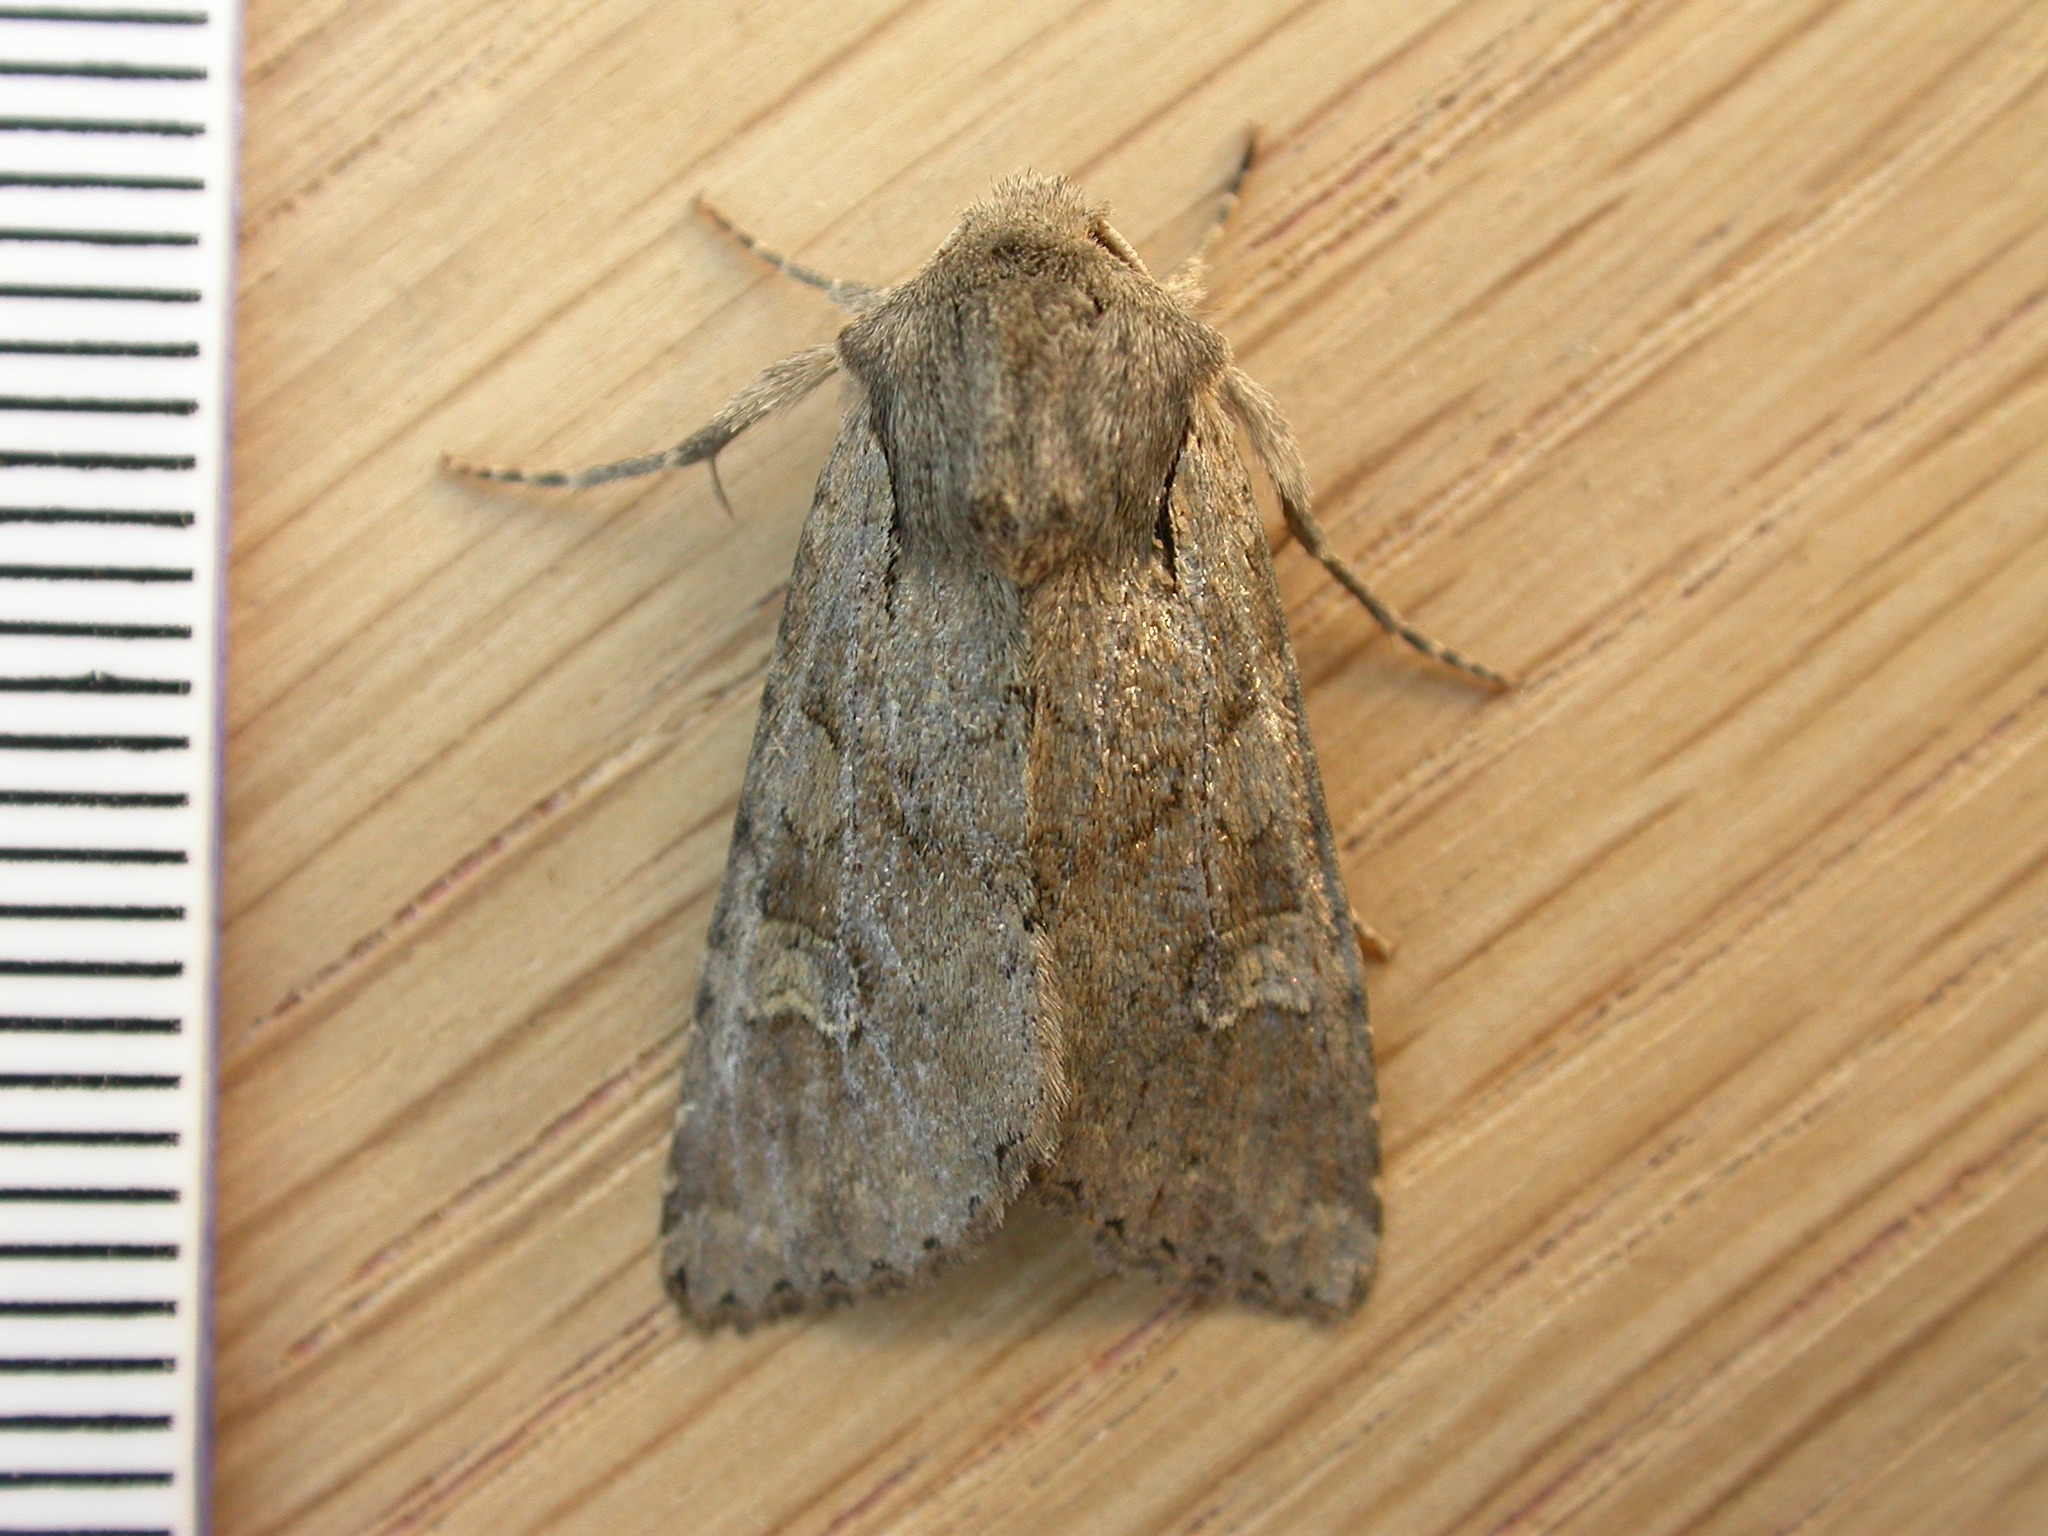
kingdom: Animalia
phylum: Arthropoda
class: Insecta
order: Lepidoptera
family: Noctuidae
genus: Apamea
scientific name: Apamea sordens
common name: Rustic shoulder-knot
